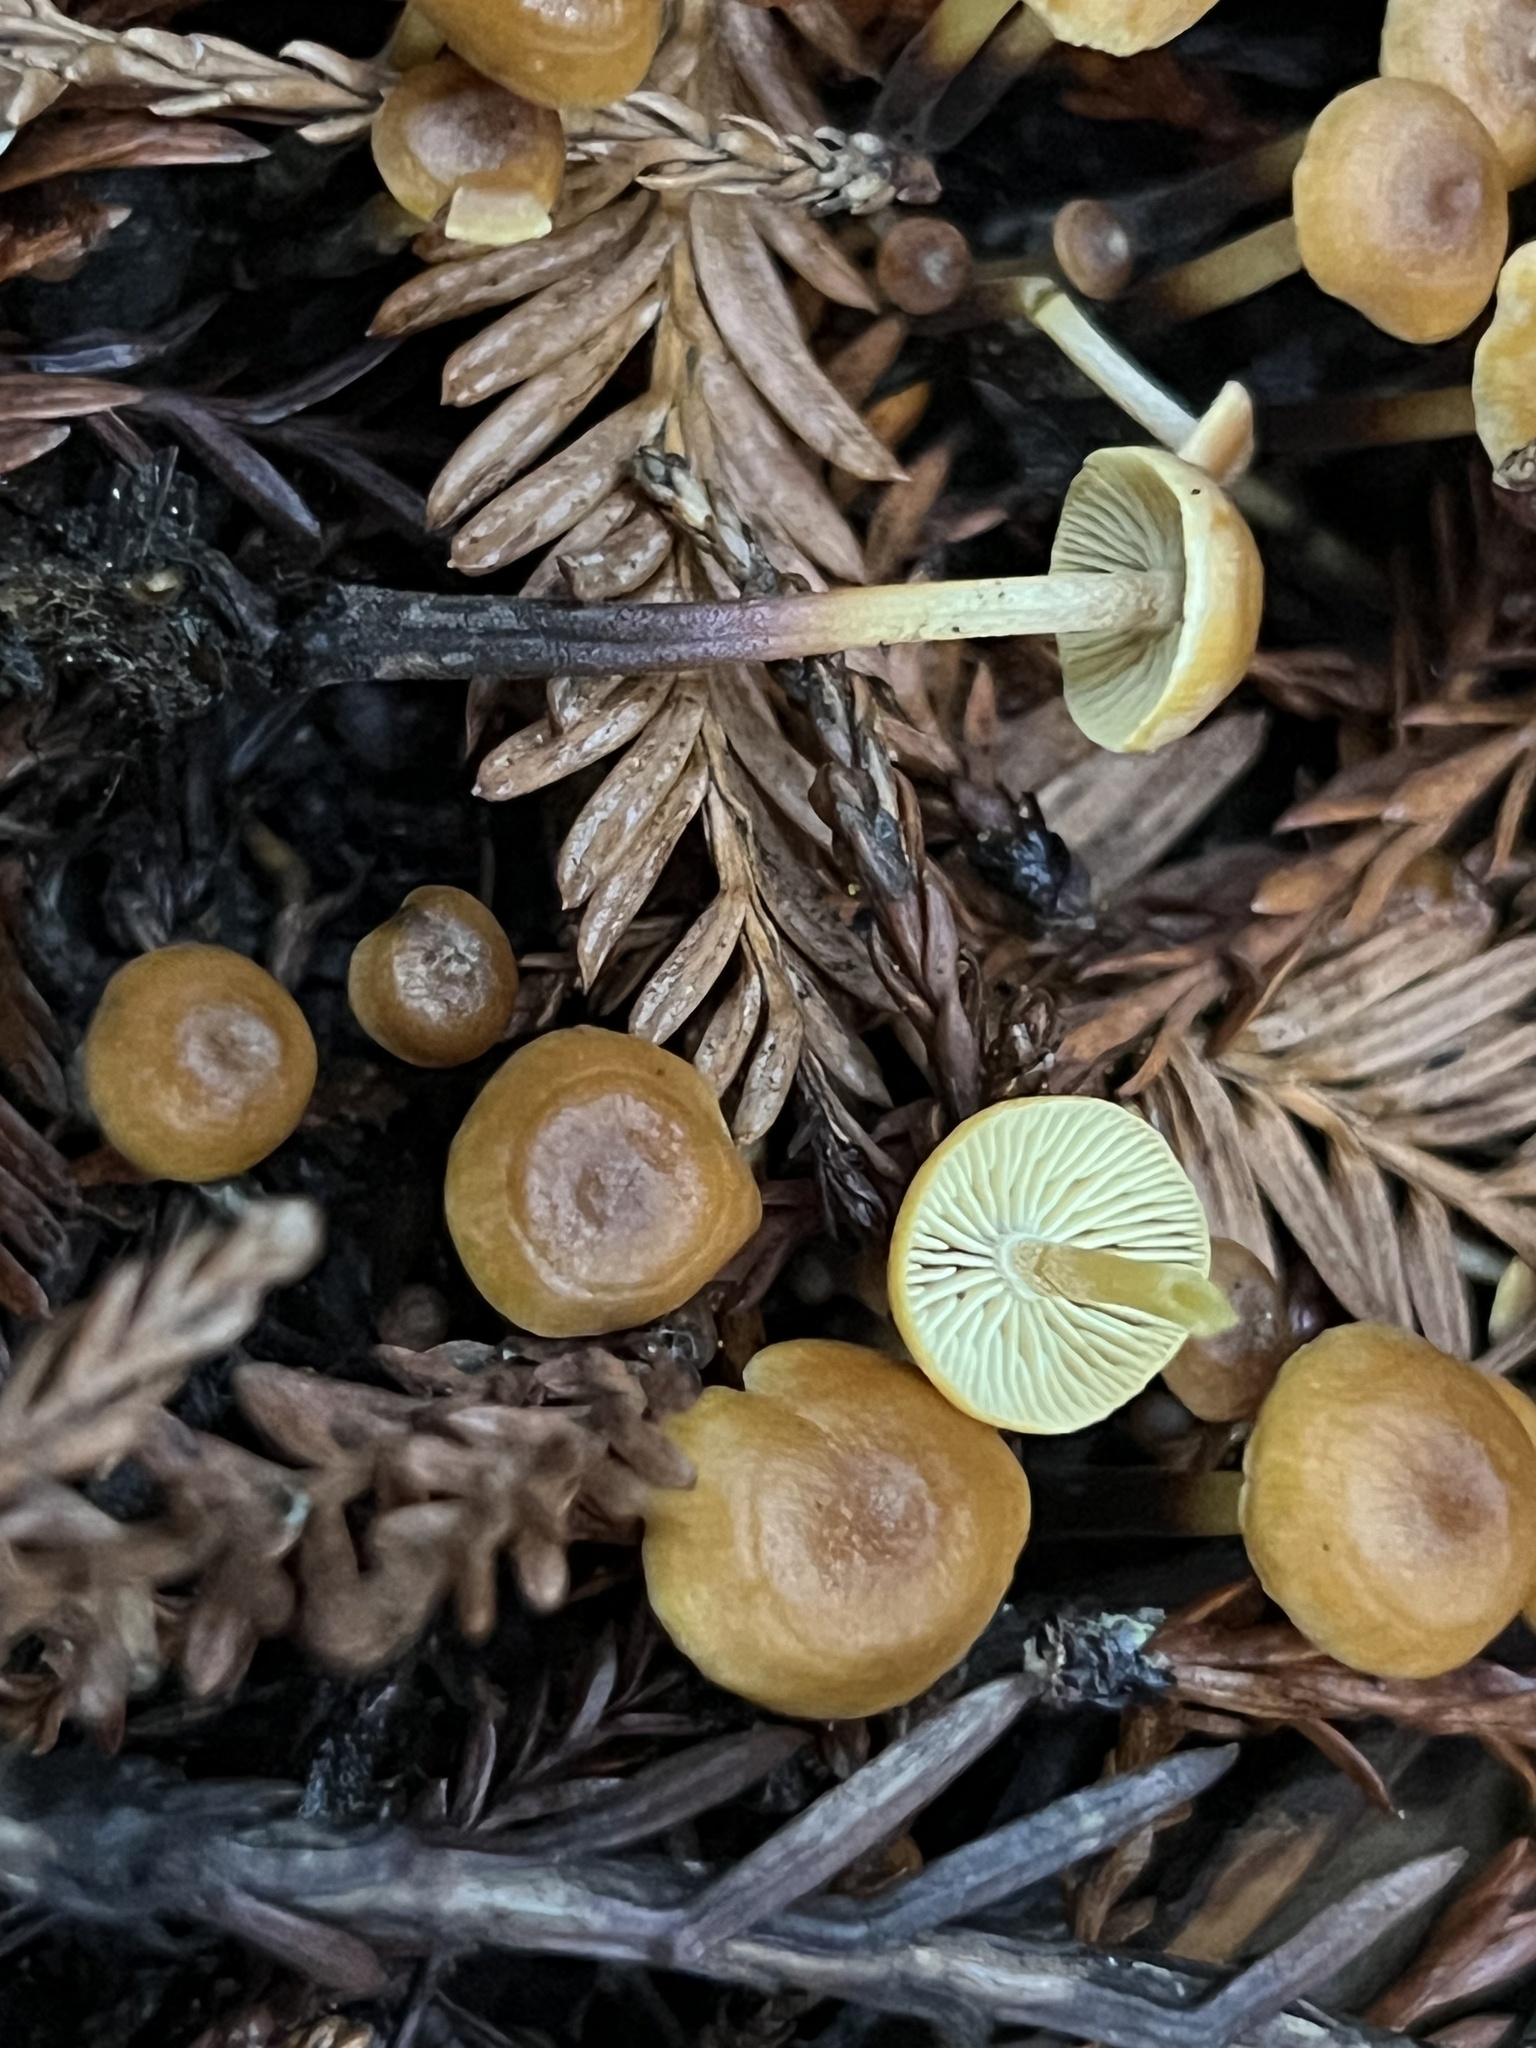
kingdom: Fungi
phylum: Basidiomycota
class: Agaricomycetes
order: Agaricales
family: Mycenaceae
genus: Xeromphalina
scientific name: Xeromphalina cauticinalis
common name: Pinelitter gingertail
